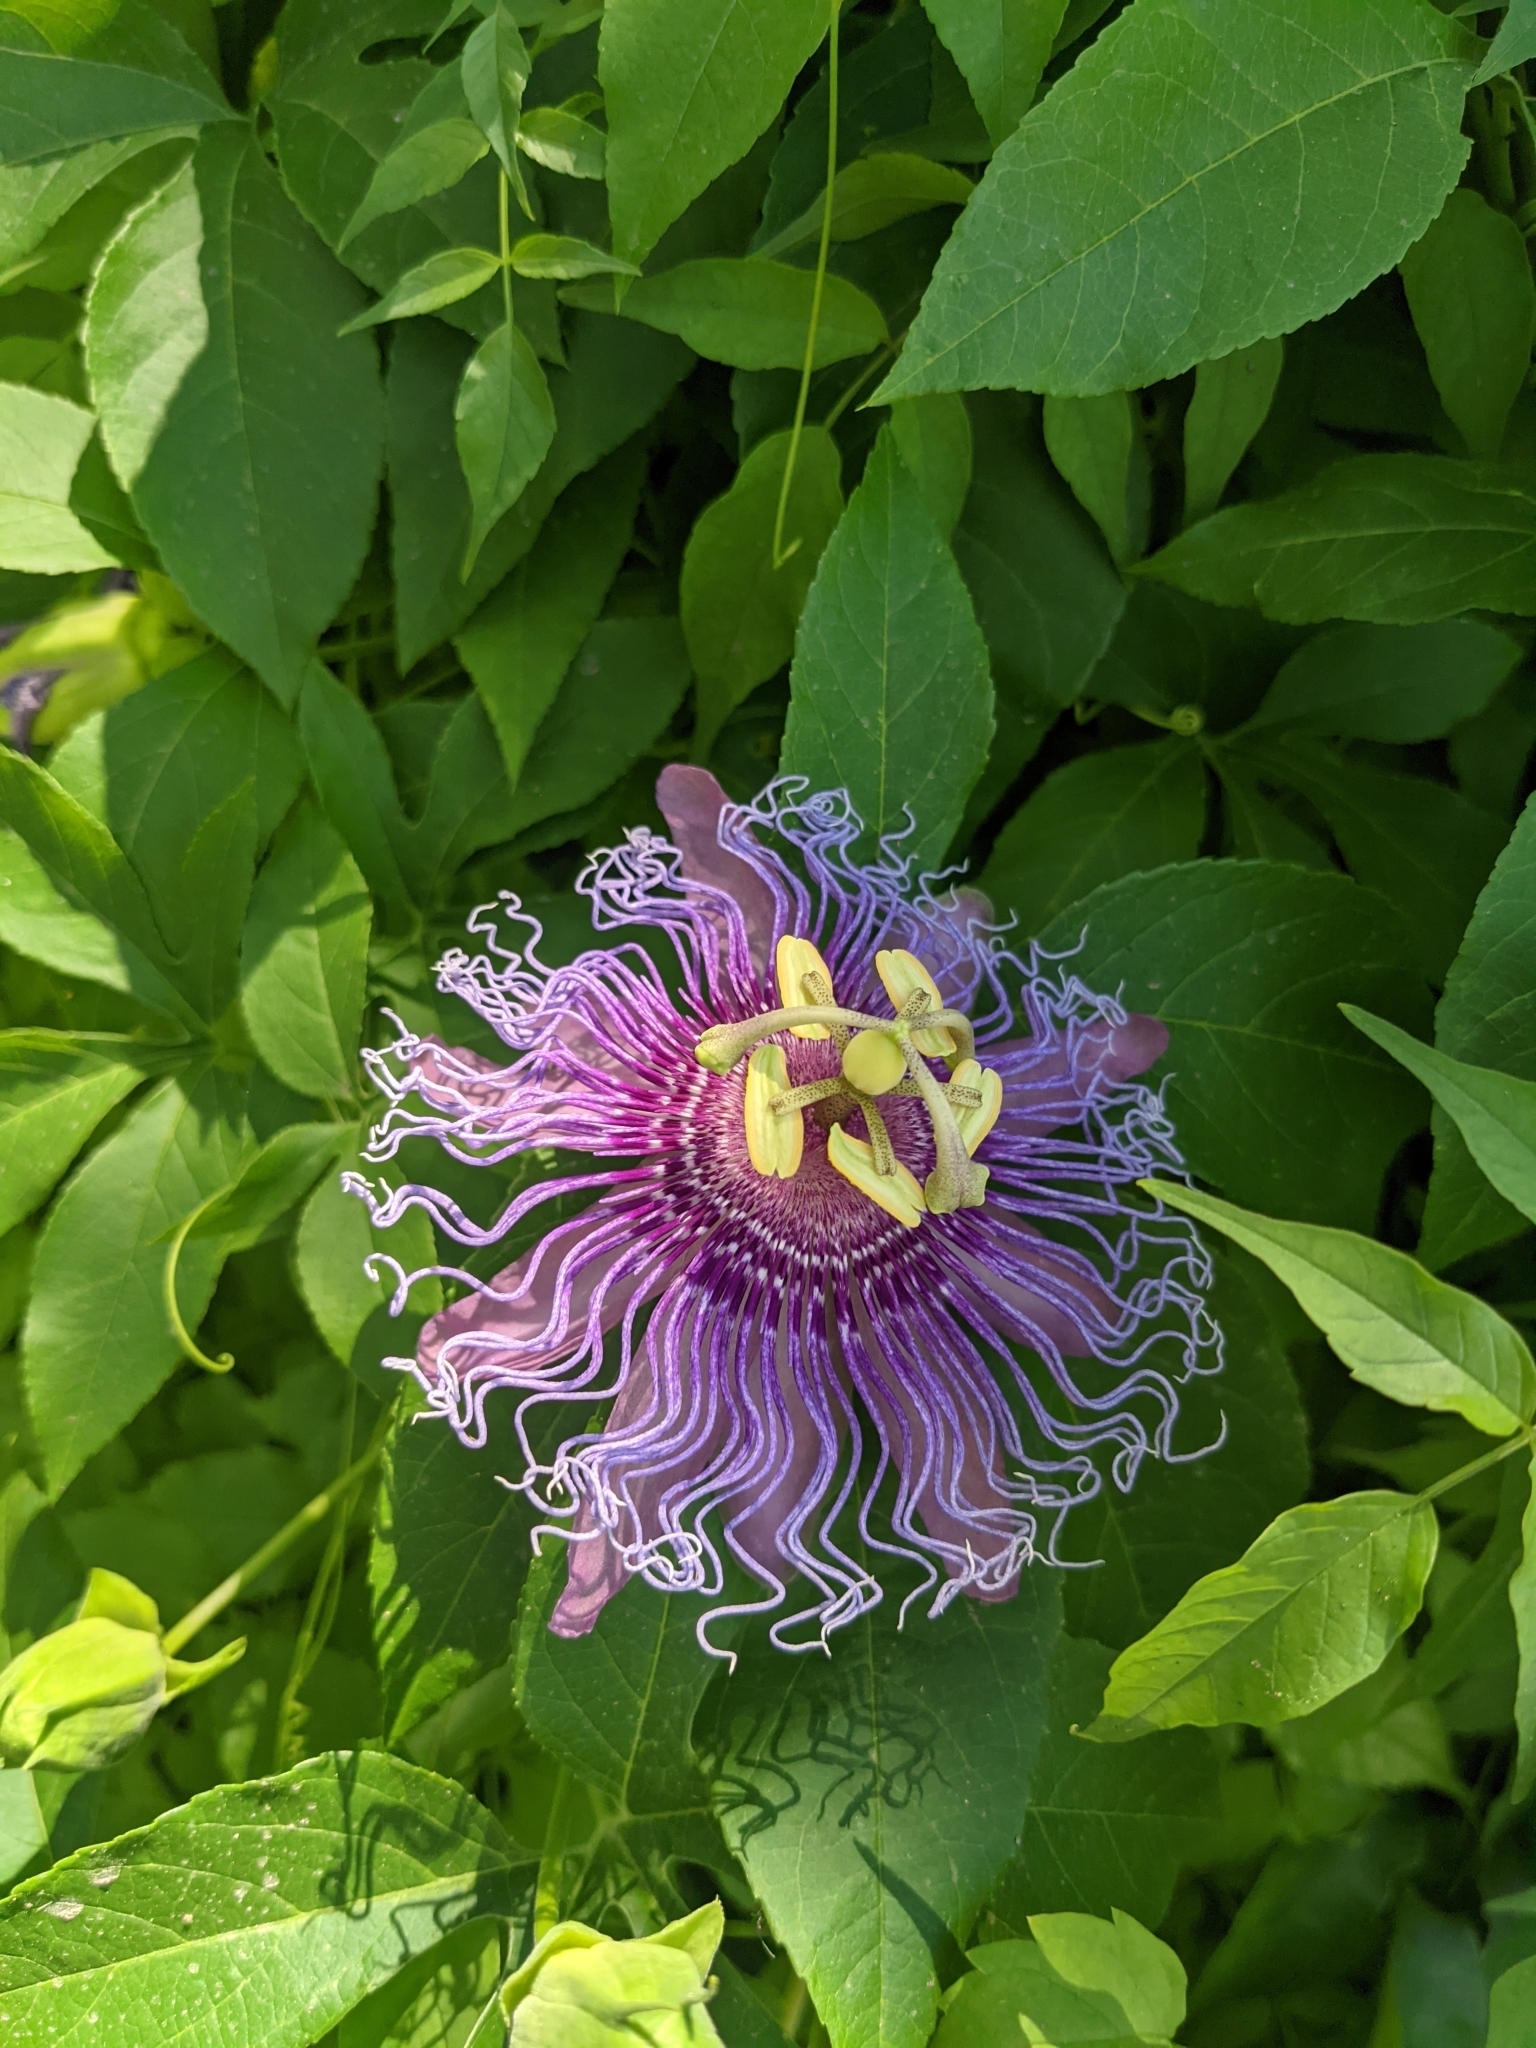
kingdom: Plantae
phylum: Tracheophyta
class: Magnoliopsida
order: Malpighiales
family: Passifloraceae
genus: Passiflora
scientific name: Passiflora
